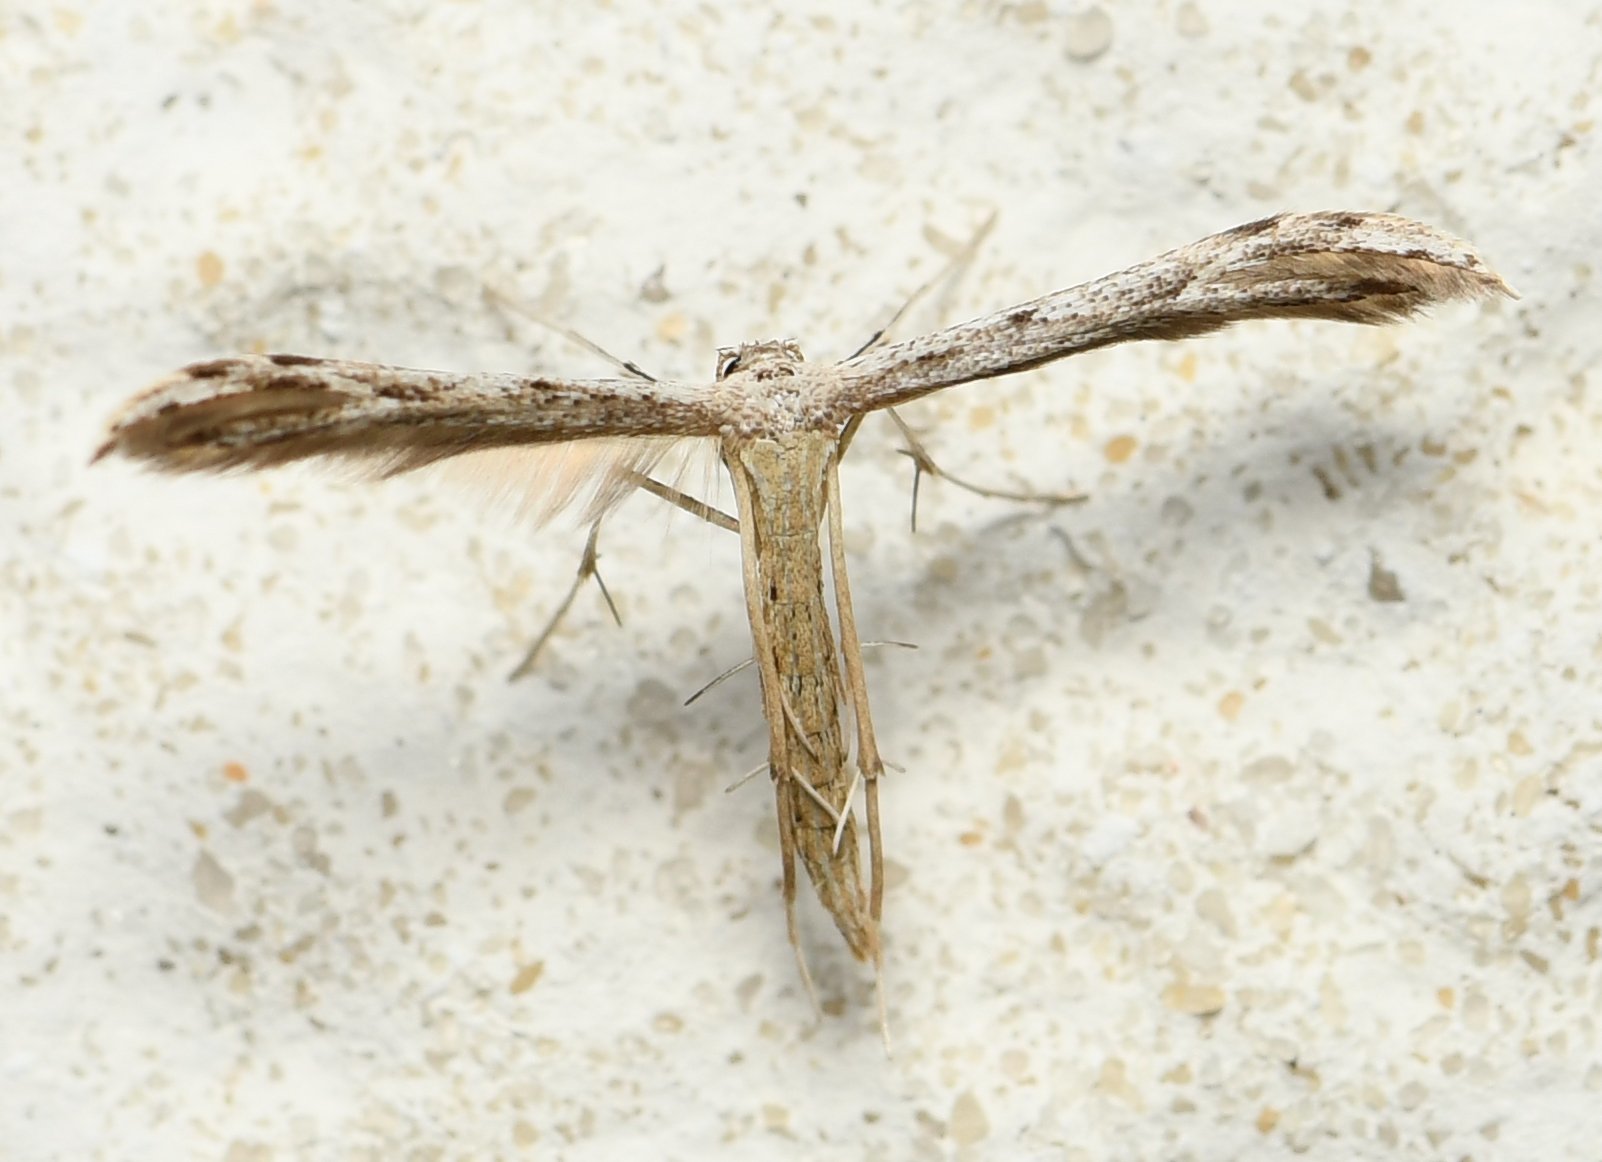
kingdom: Animalia
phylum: Arthropoda
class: Insecta
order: Lepidoptera
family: Pterophoridae
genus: Pselnophorus
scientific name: Pselnophorus belfragei
